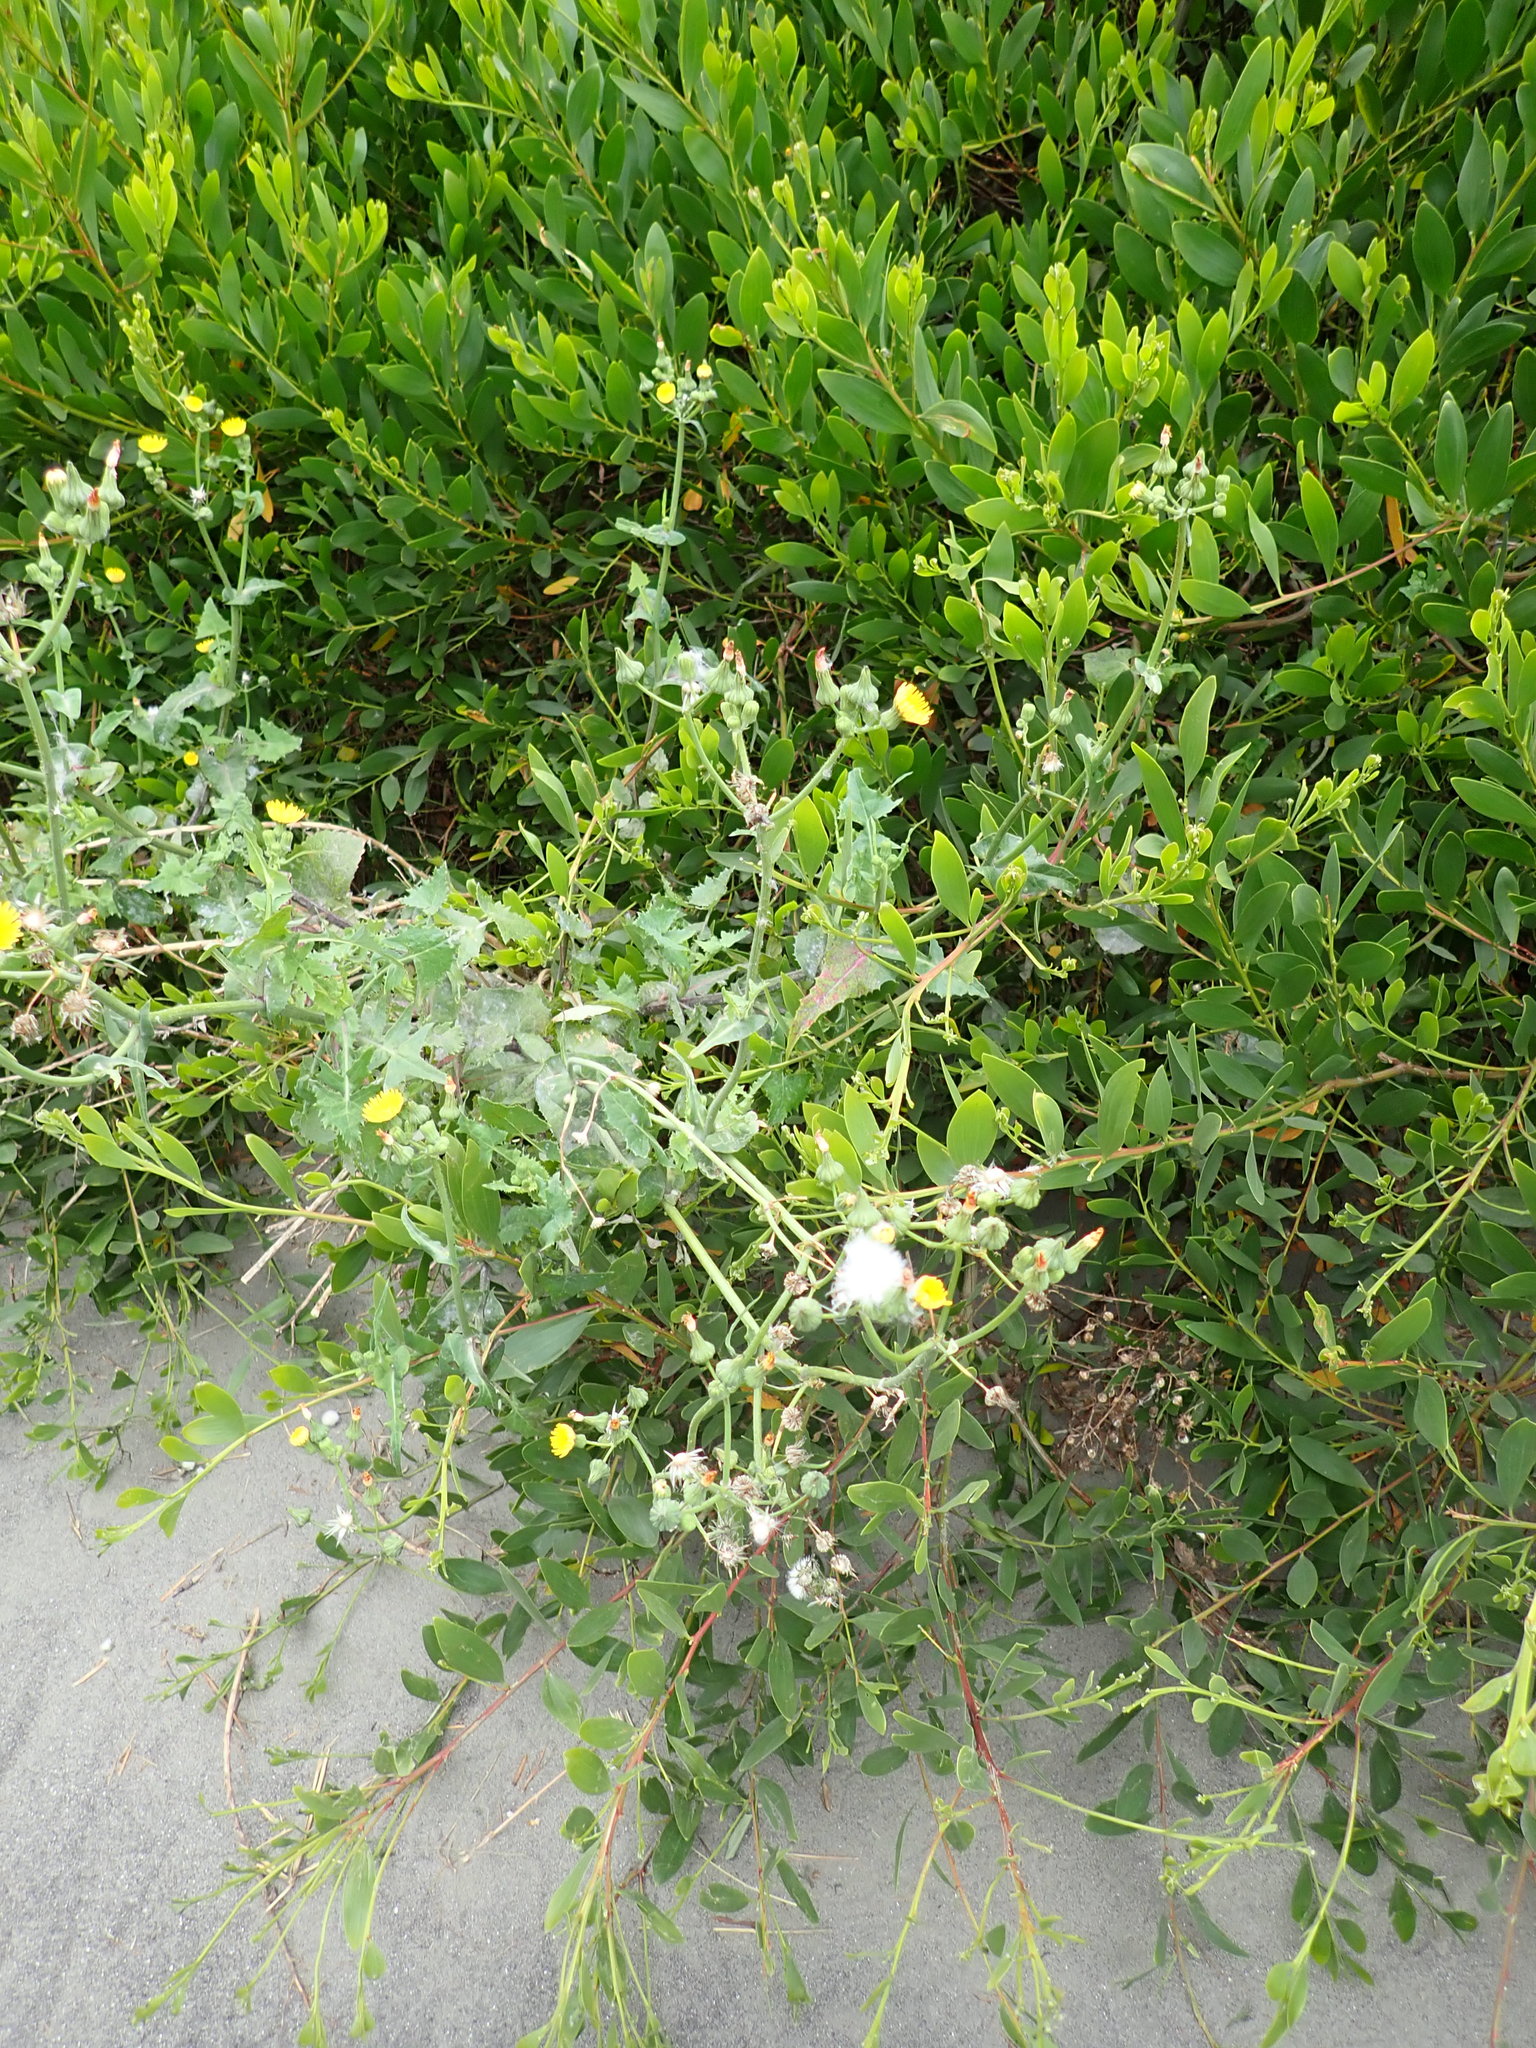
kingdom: Plantae
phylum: Tracheophyta
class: Magnoliopsida
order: Asterales
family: Asteraceae
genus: Sonchus
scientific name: Sonchus oleraceus
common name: Common sowthistle
